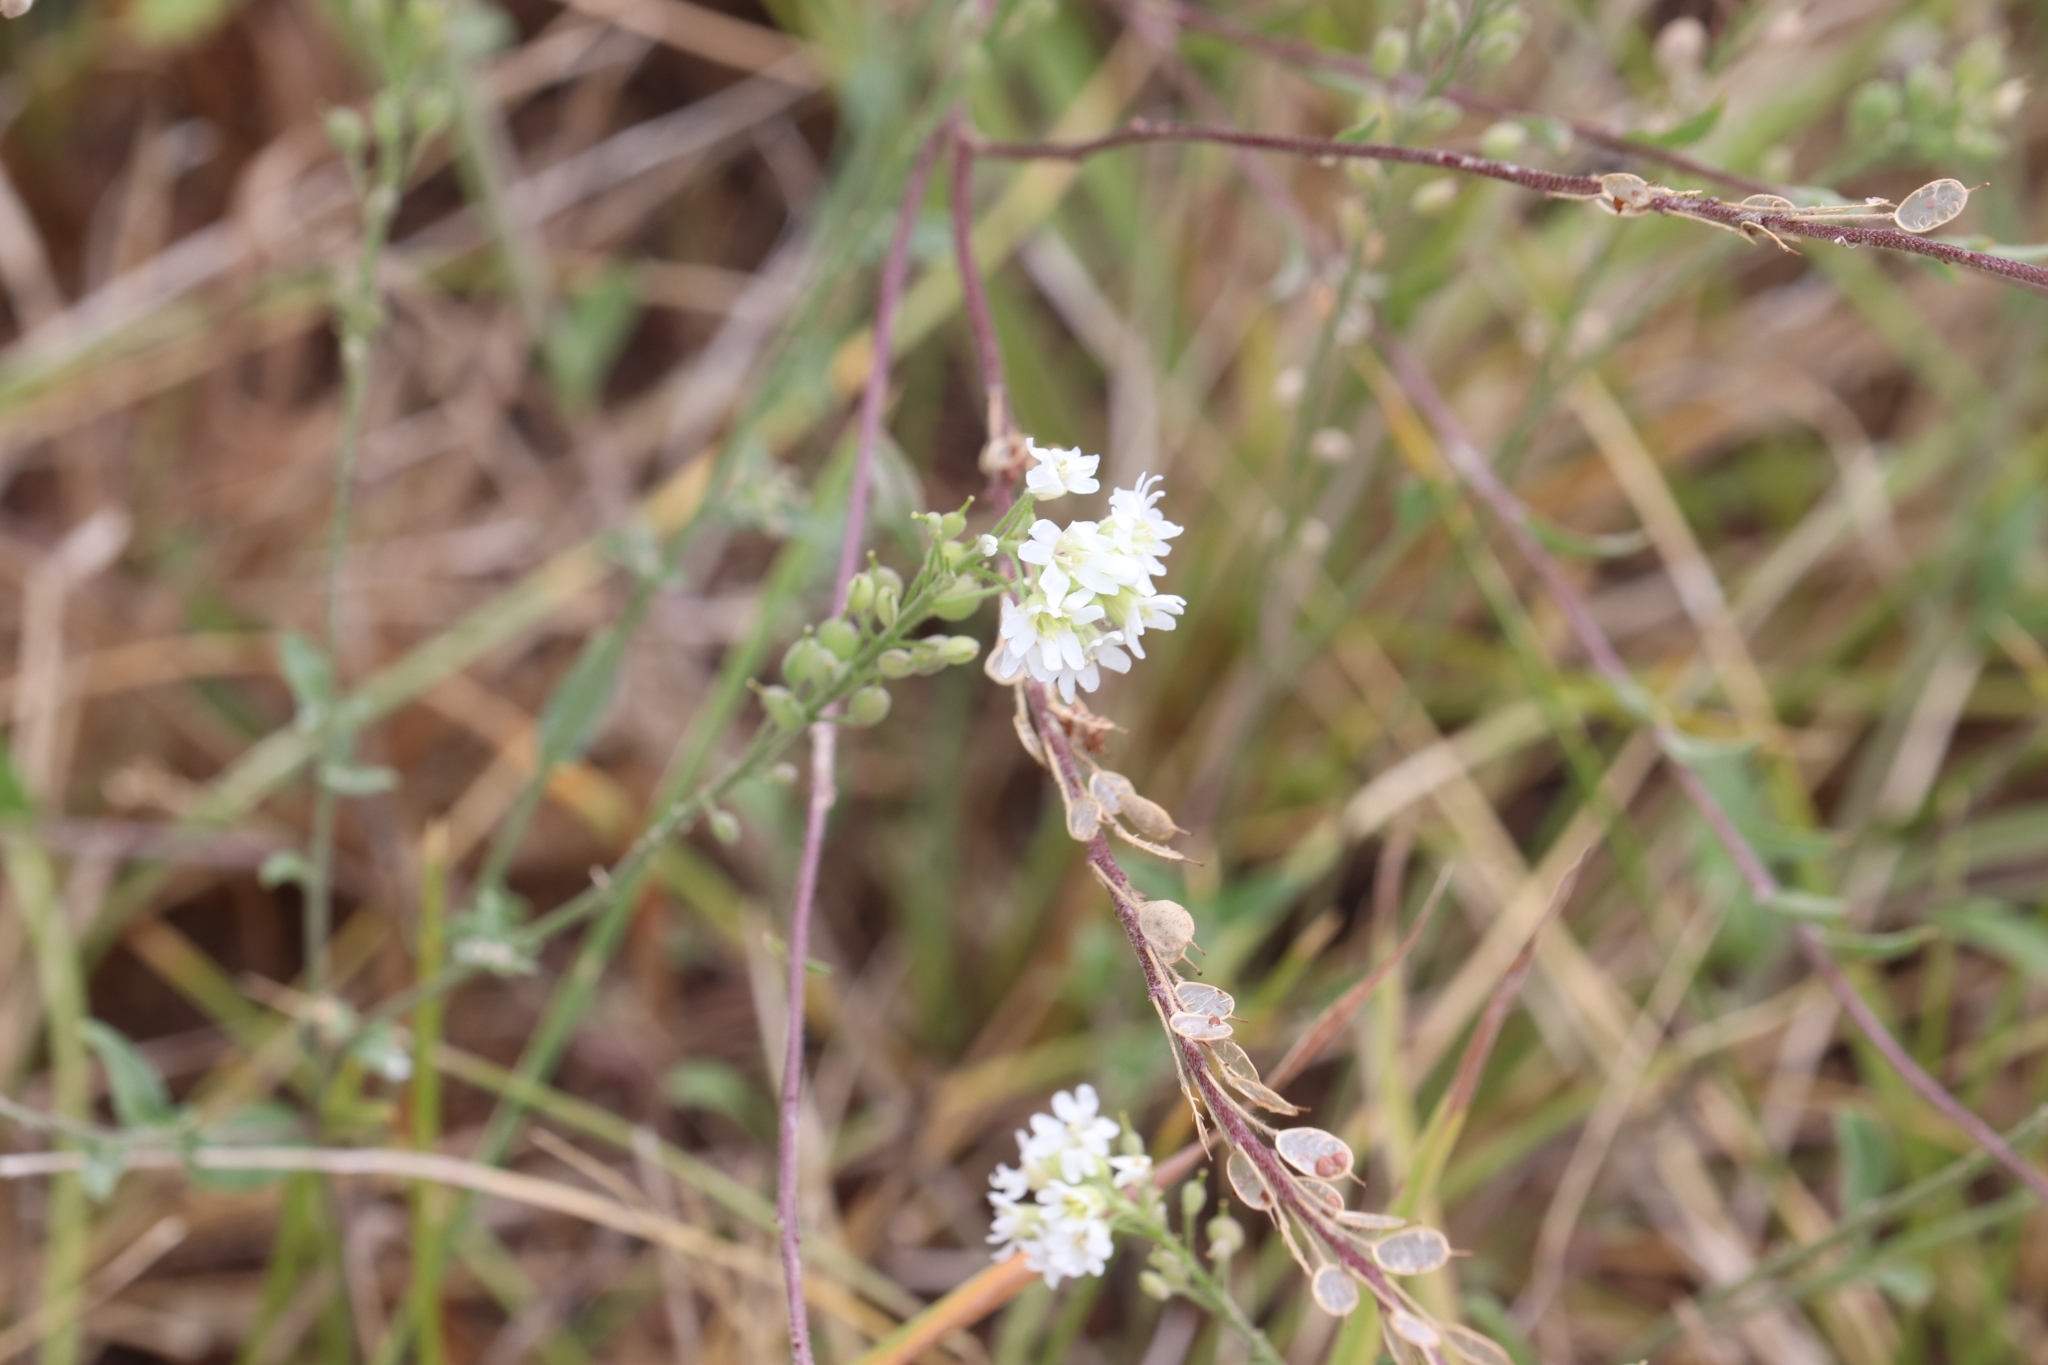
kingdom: Plantae
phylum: Tracheophyta
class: Magnoliopsida
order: Brassicales
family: Brassicaceae
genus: Berteroa
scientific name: Berteroa incana
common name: Hoary alison
